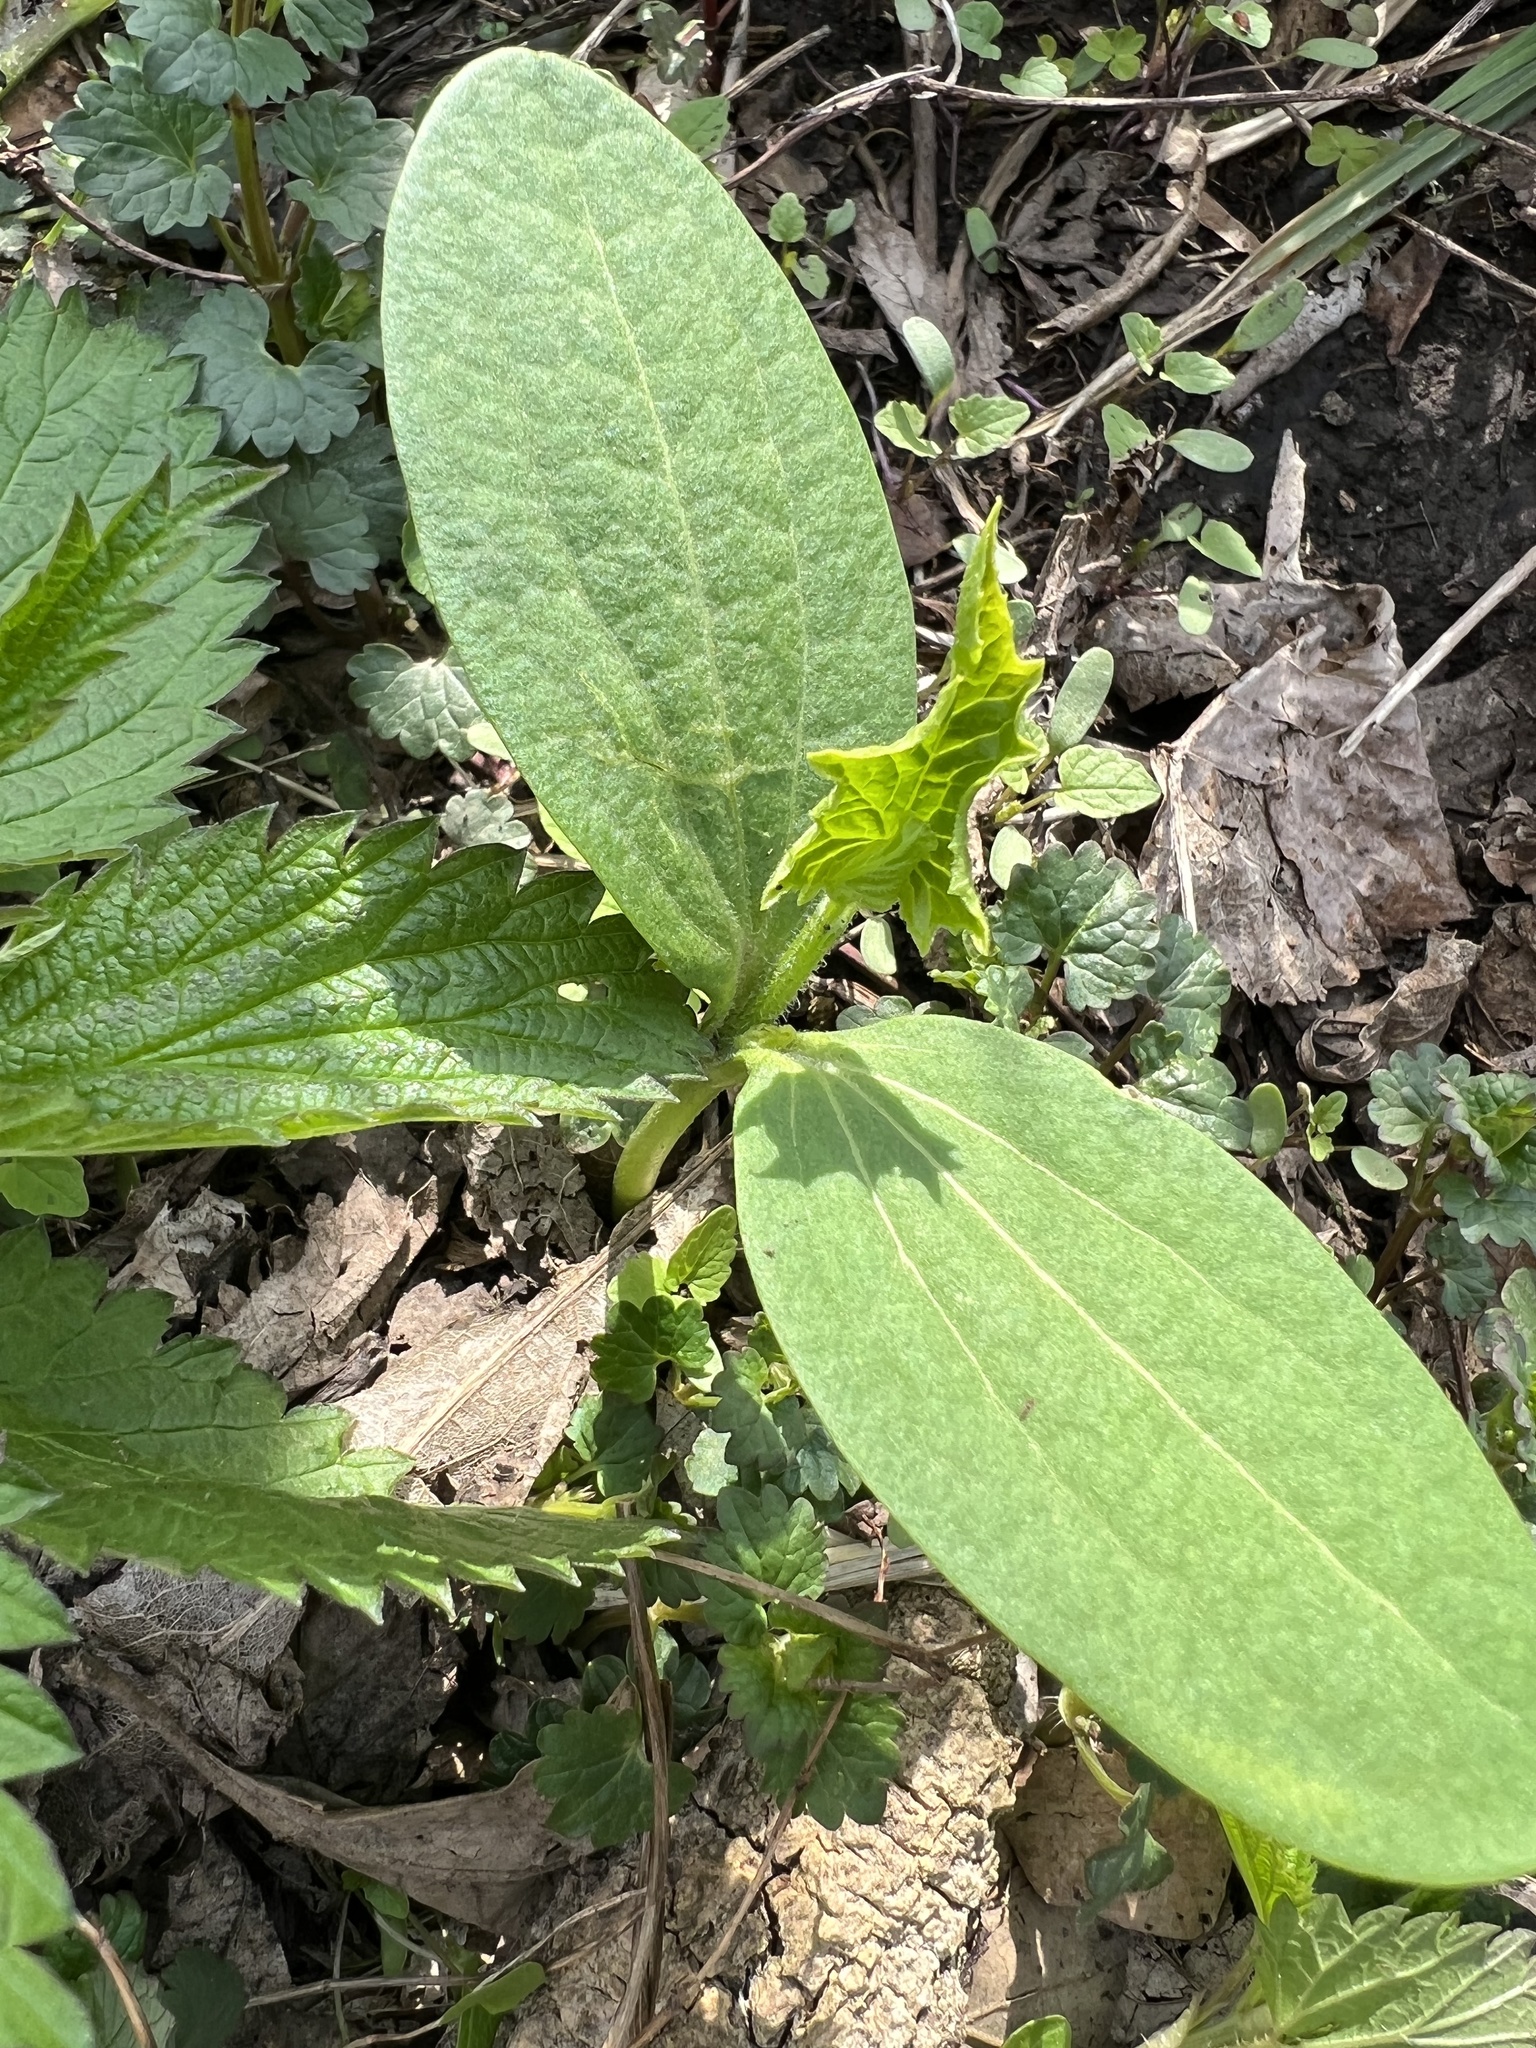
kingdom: Plantae
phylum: Tracheophyta
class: Magnoliopsida
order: Cucurbitales
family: Cucurbitaceae
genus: Echinocystis
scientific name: Echinocystis lobata
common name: Wild cucumber
